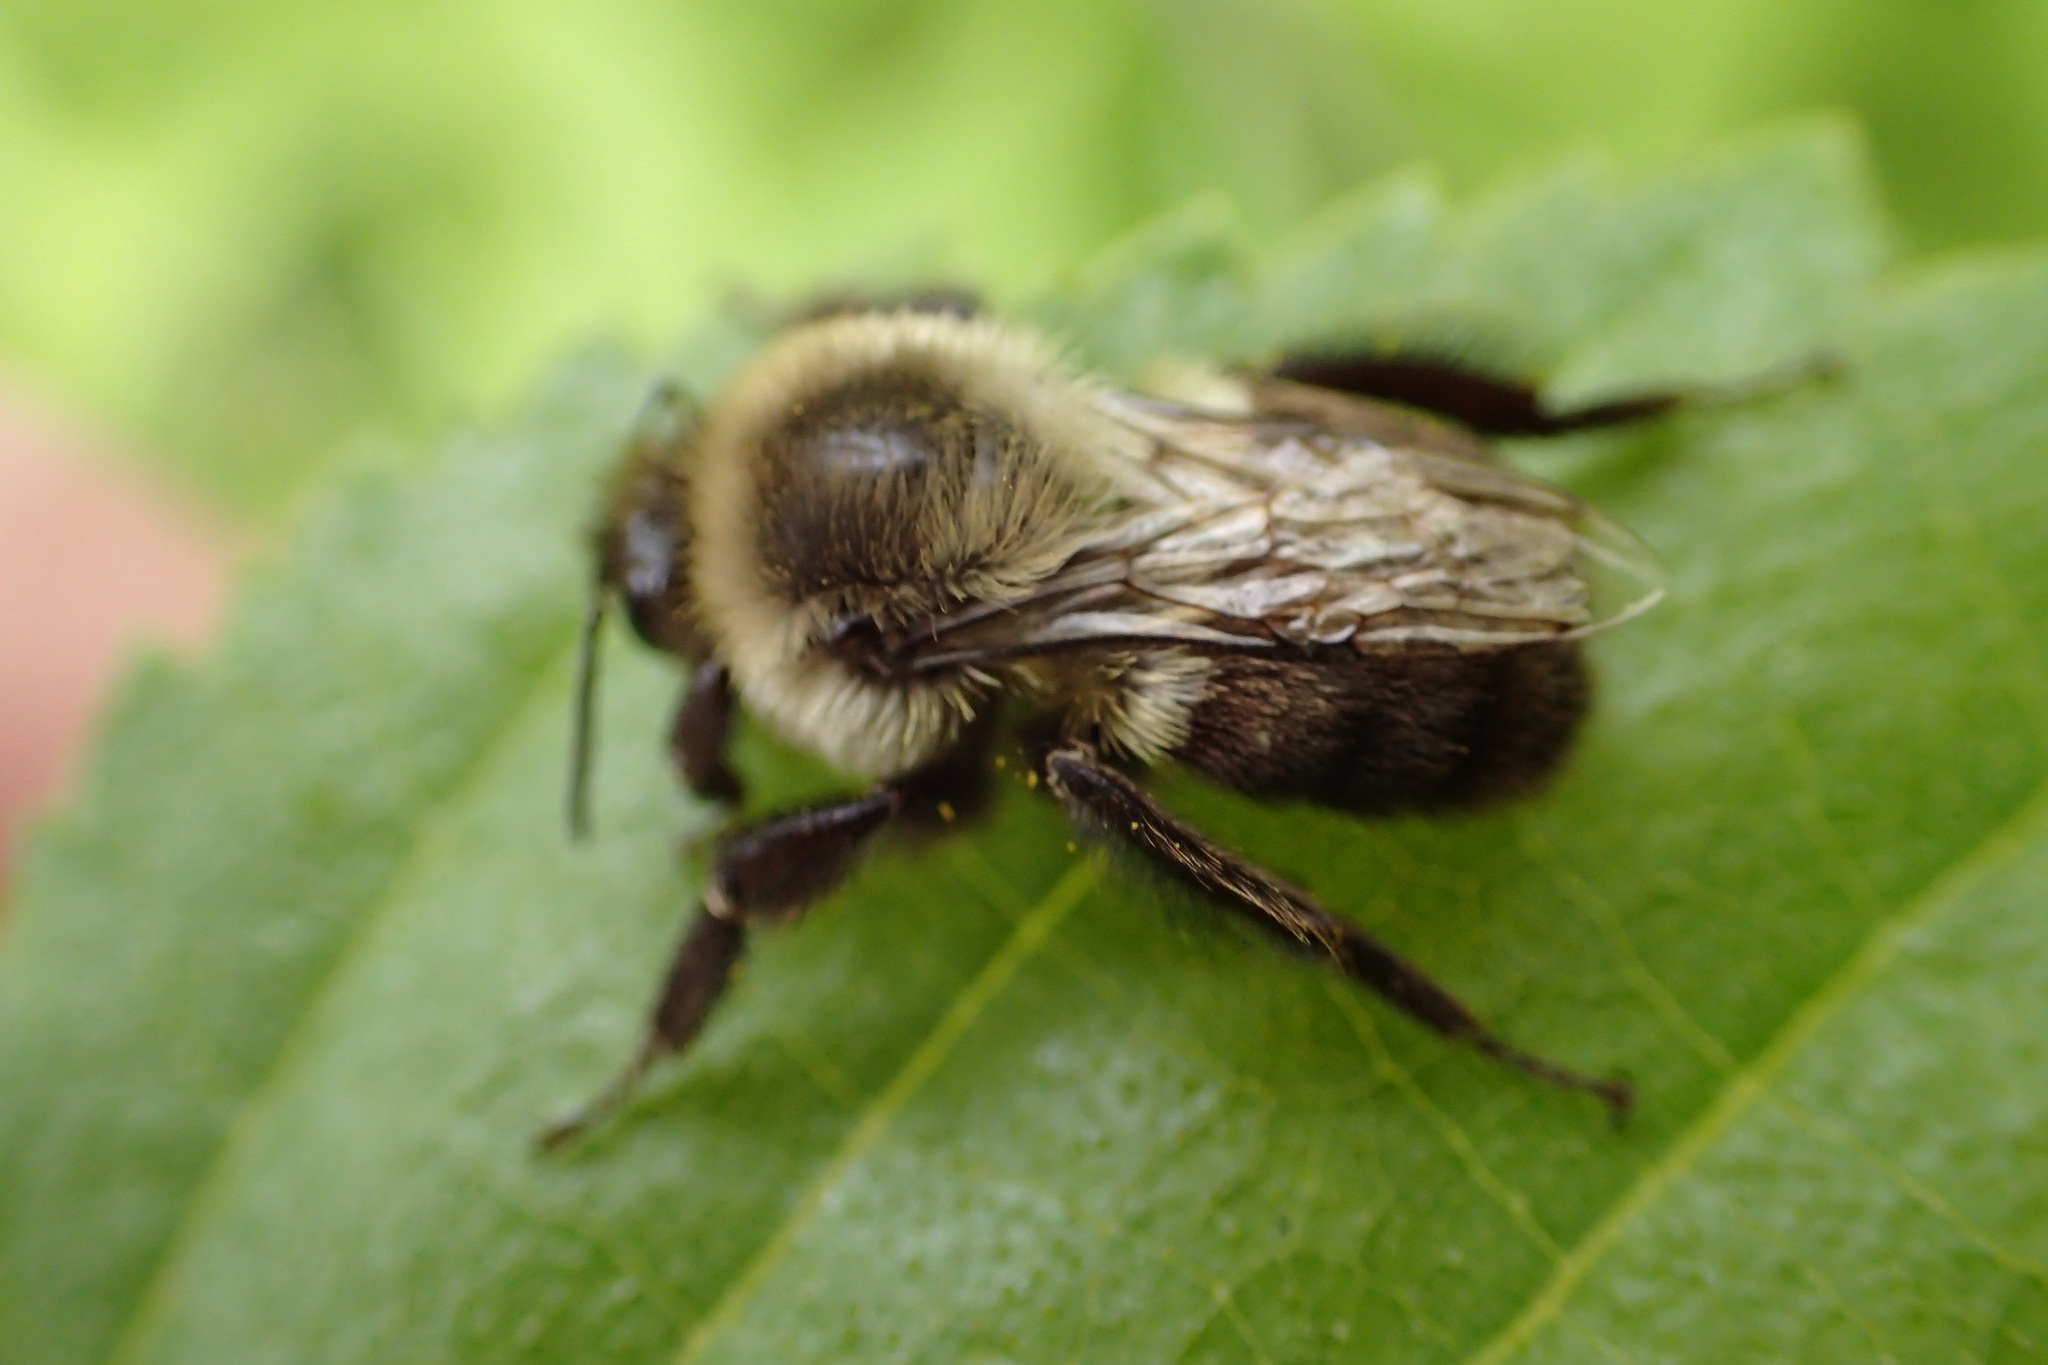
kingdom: Animalia
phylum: Arthropoda
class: Insecta
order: Hymenoptera
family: Apidae
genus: Bombus
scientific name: Bombus impatiens
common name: Common eastern bumble bee
